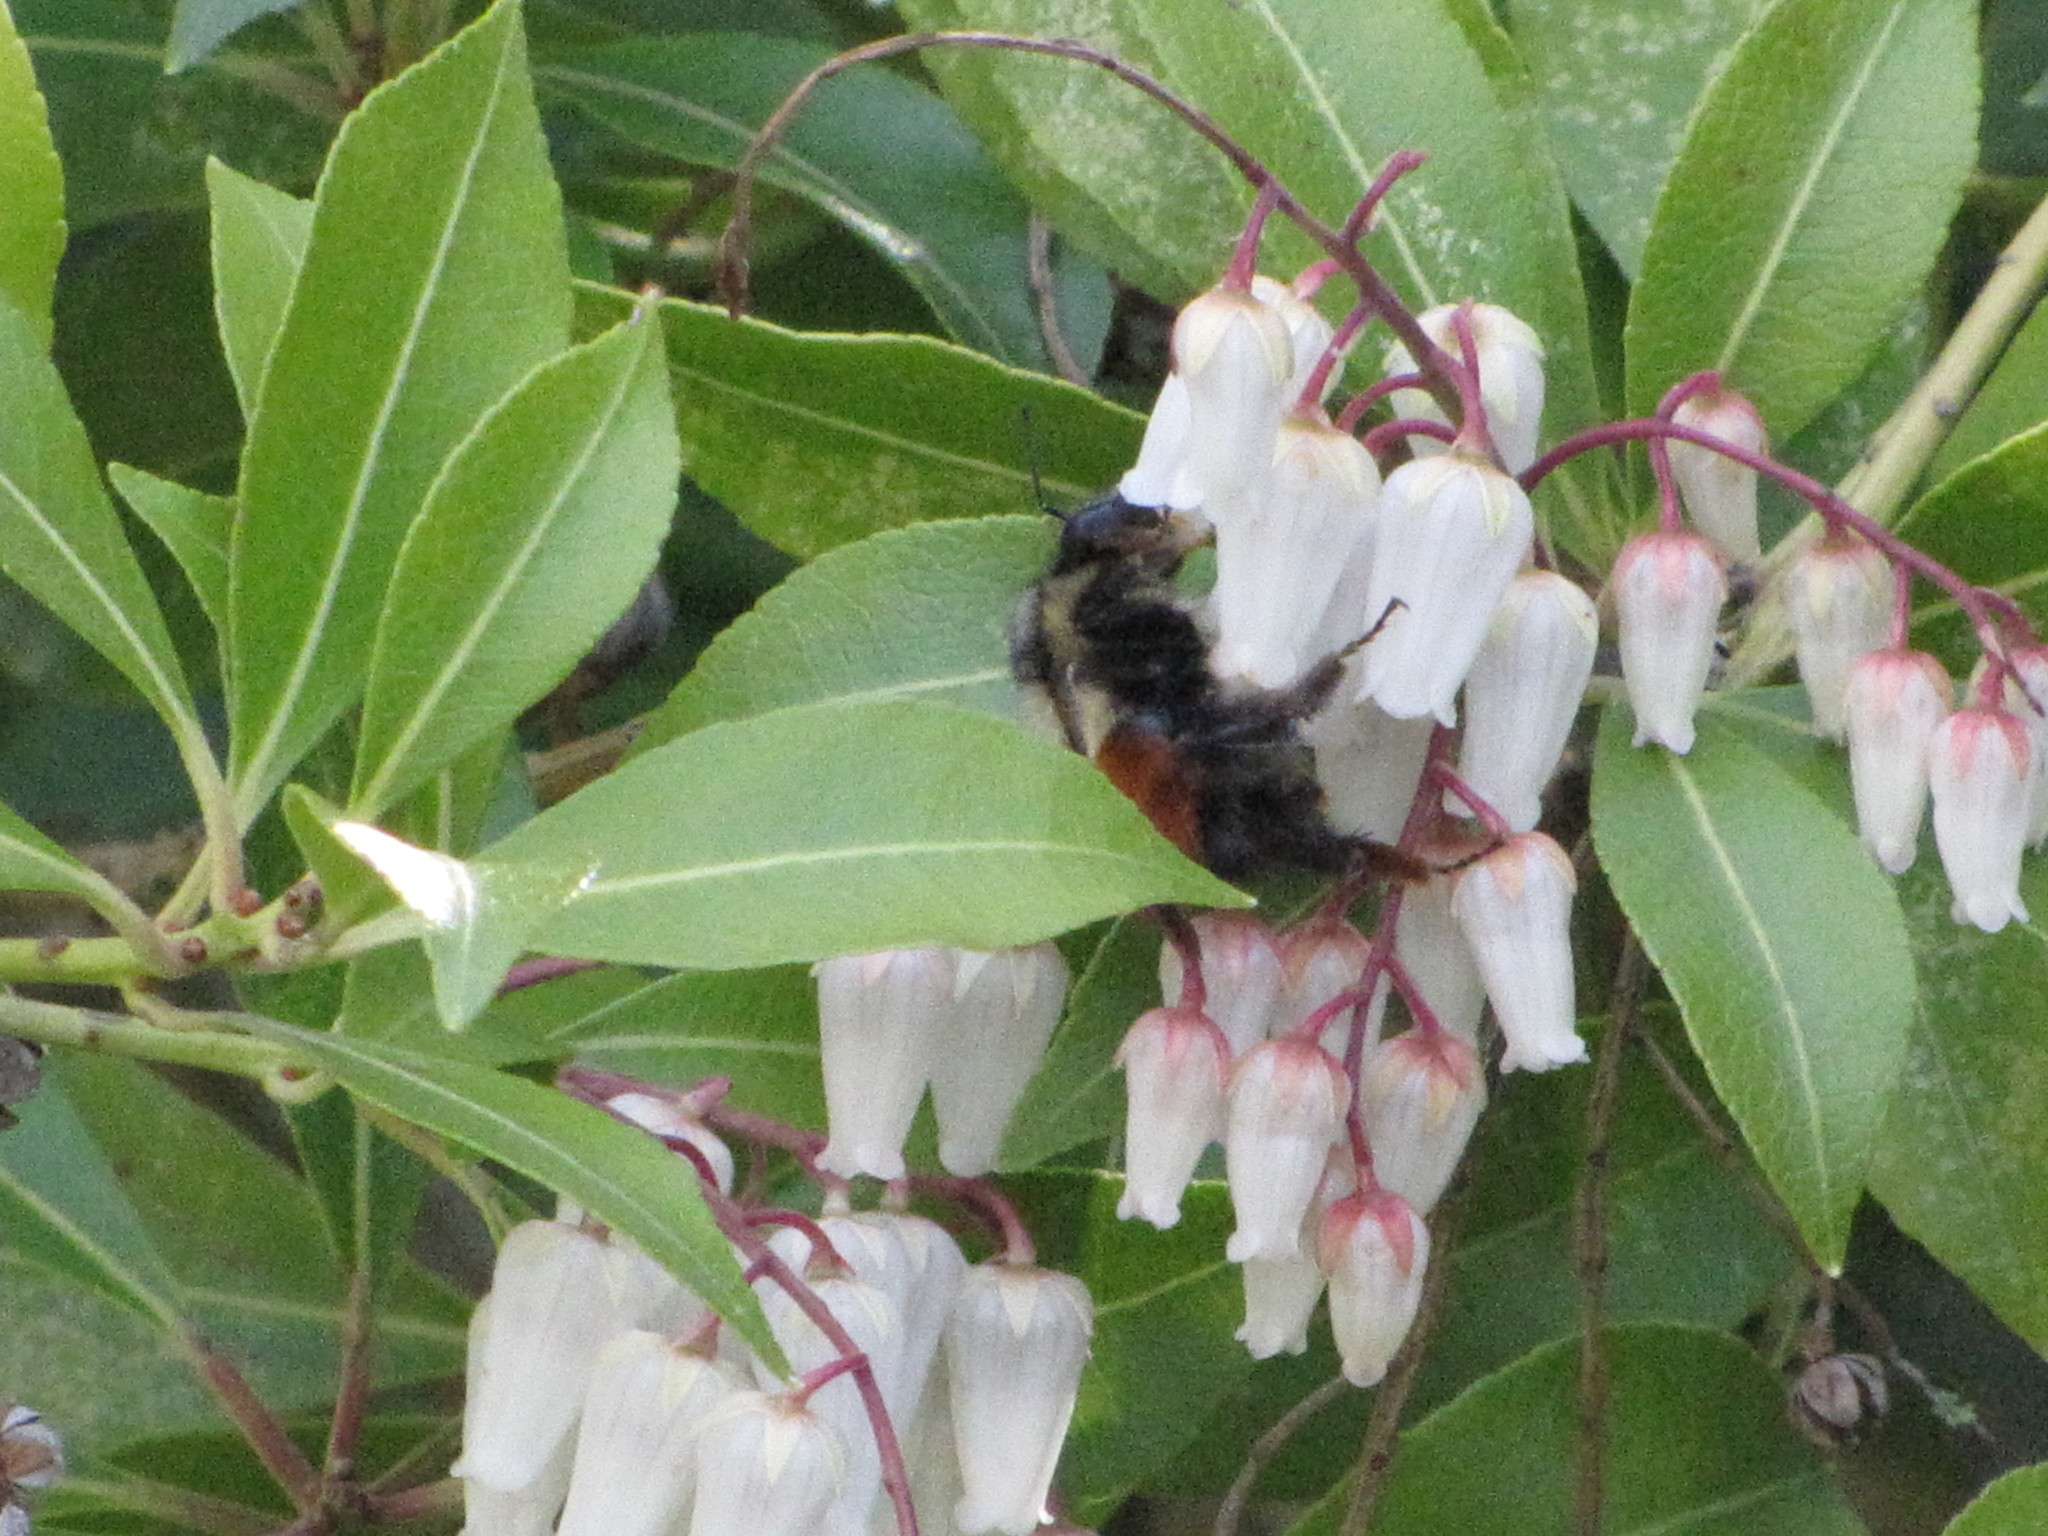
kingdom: Animalia
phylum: Arthropoda
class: Insecta
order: Hymenoptera
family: Apidae
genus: Bombus
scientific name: Bombus melanopygus
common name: Black tail bumble bee
